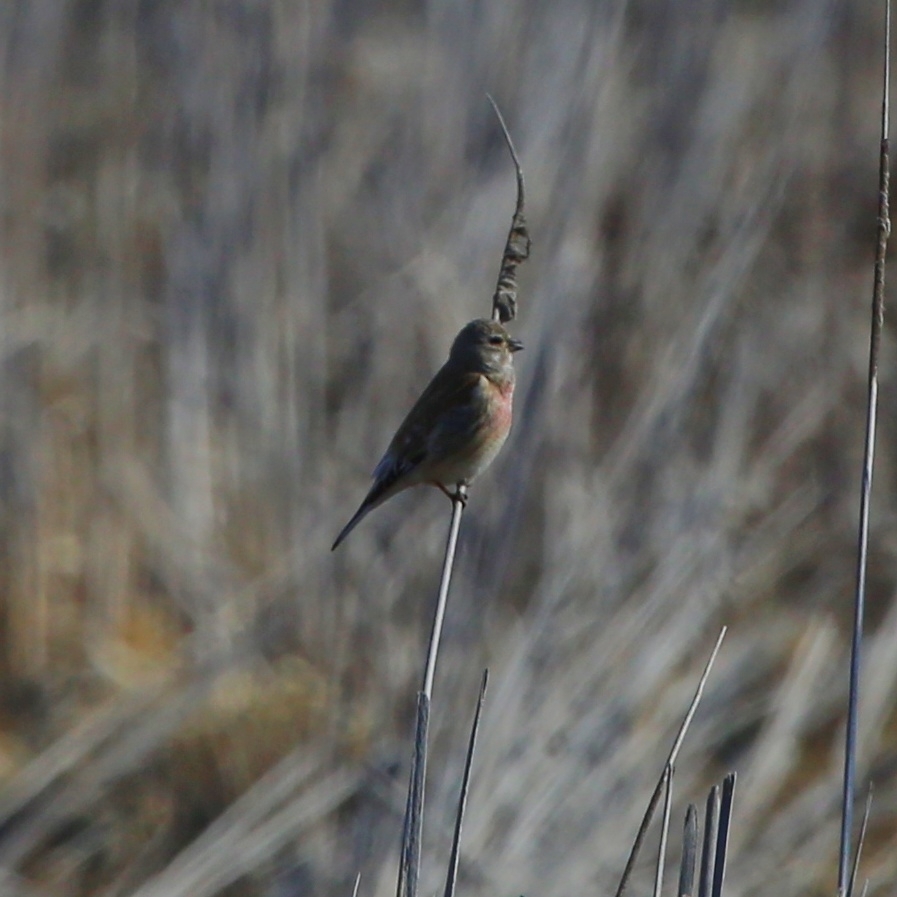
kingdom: Animalia
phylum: Chordata
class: Aves
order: Passeriformes
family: Fringillidae
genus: Linaria
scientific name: Linaria cannabina
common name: Common linnet
